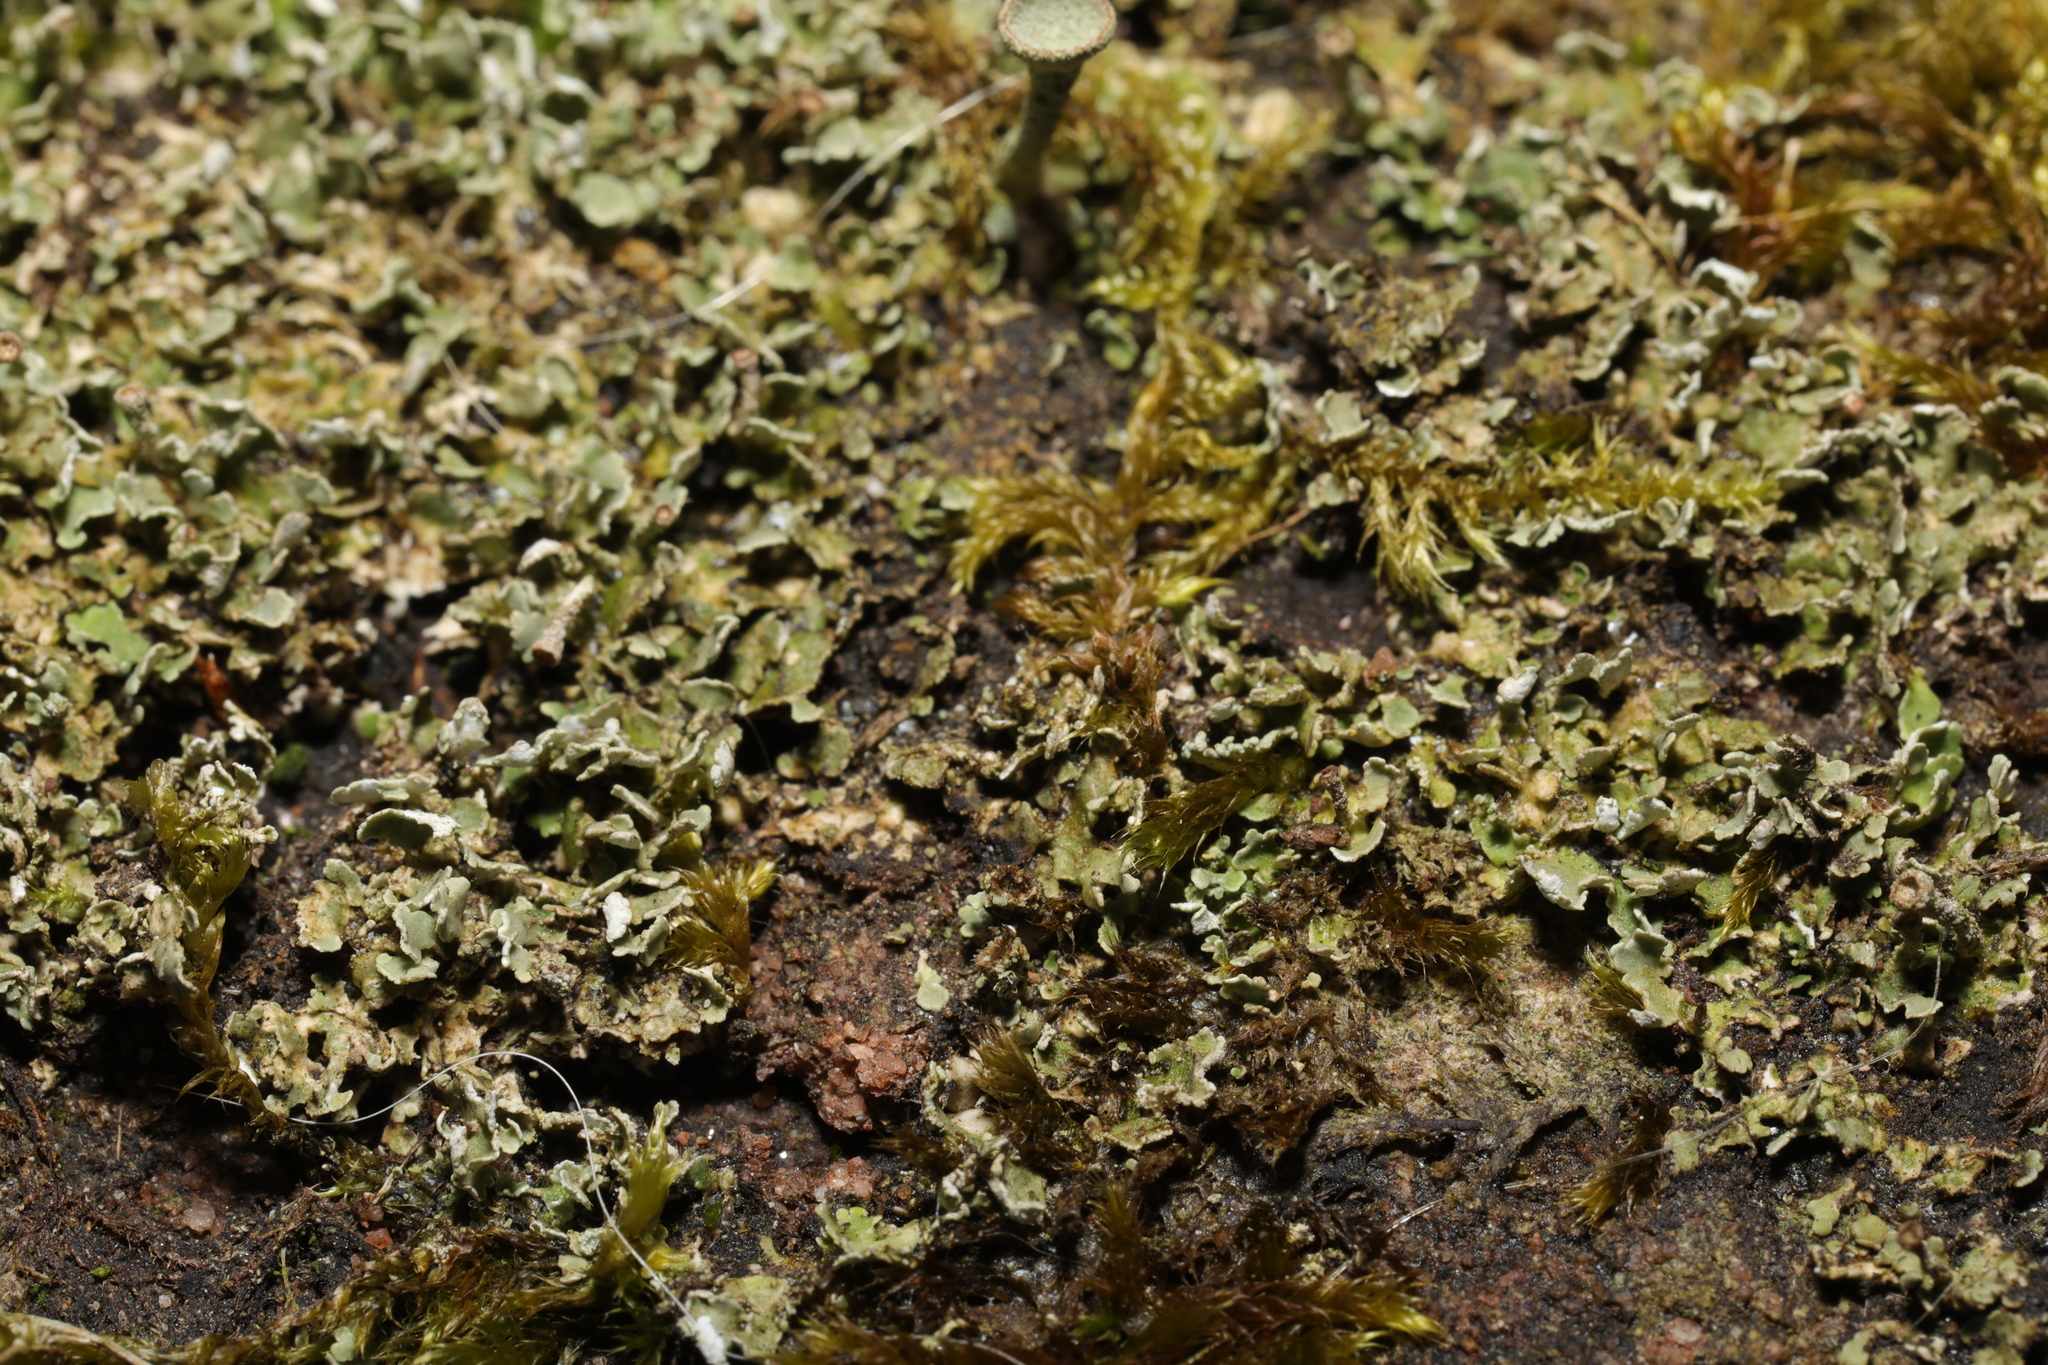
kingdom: Fungi
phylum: Ascomycota
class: Lecanoromycetes
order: Lecanorales
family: Cladoniaceae
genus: Cladonia
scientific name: Cladonia
